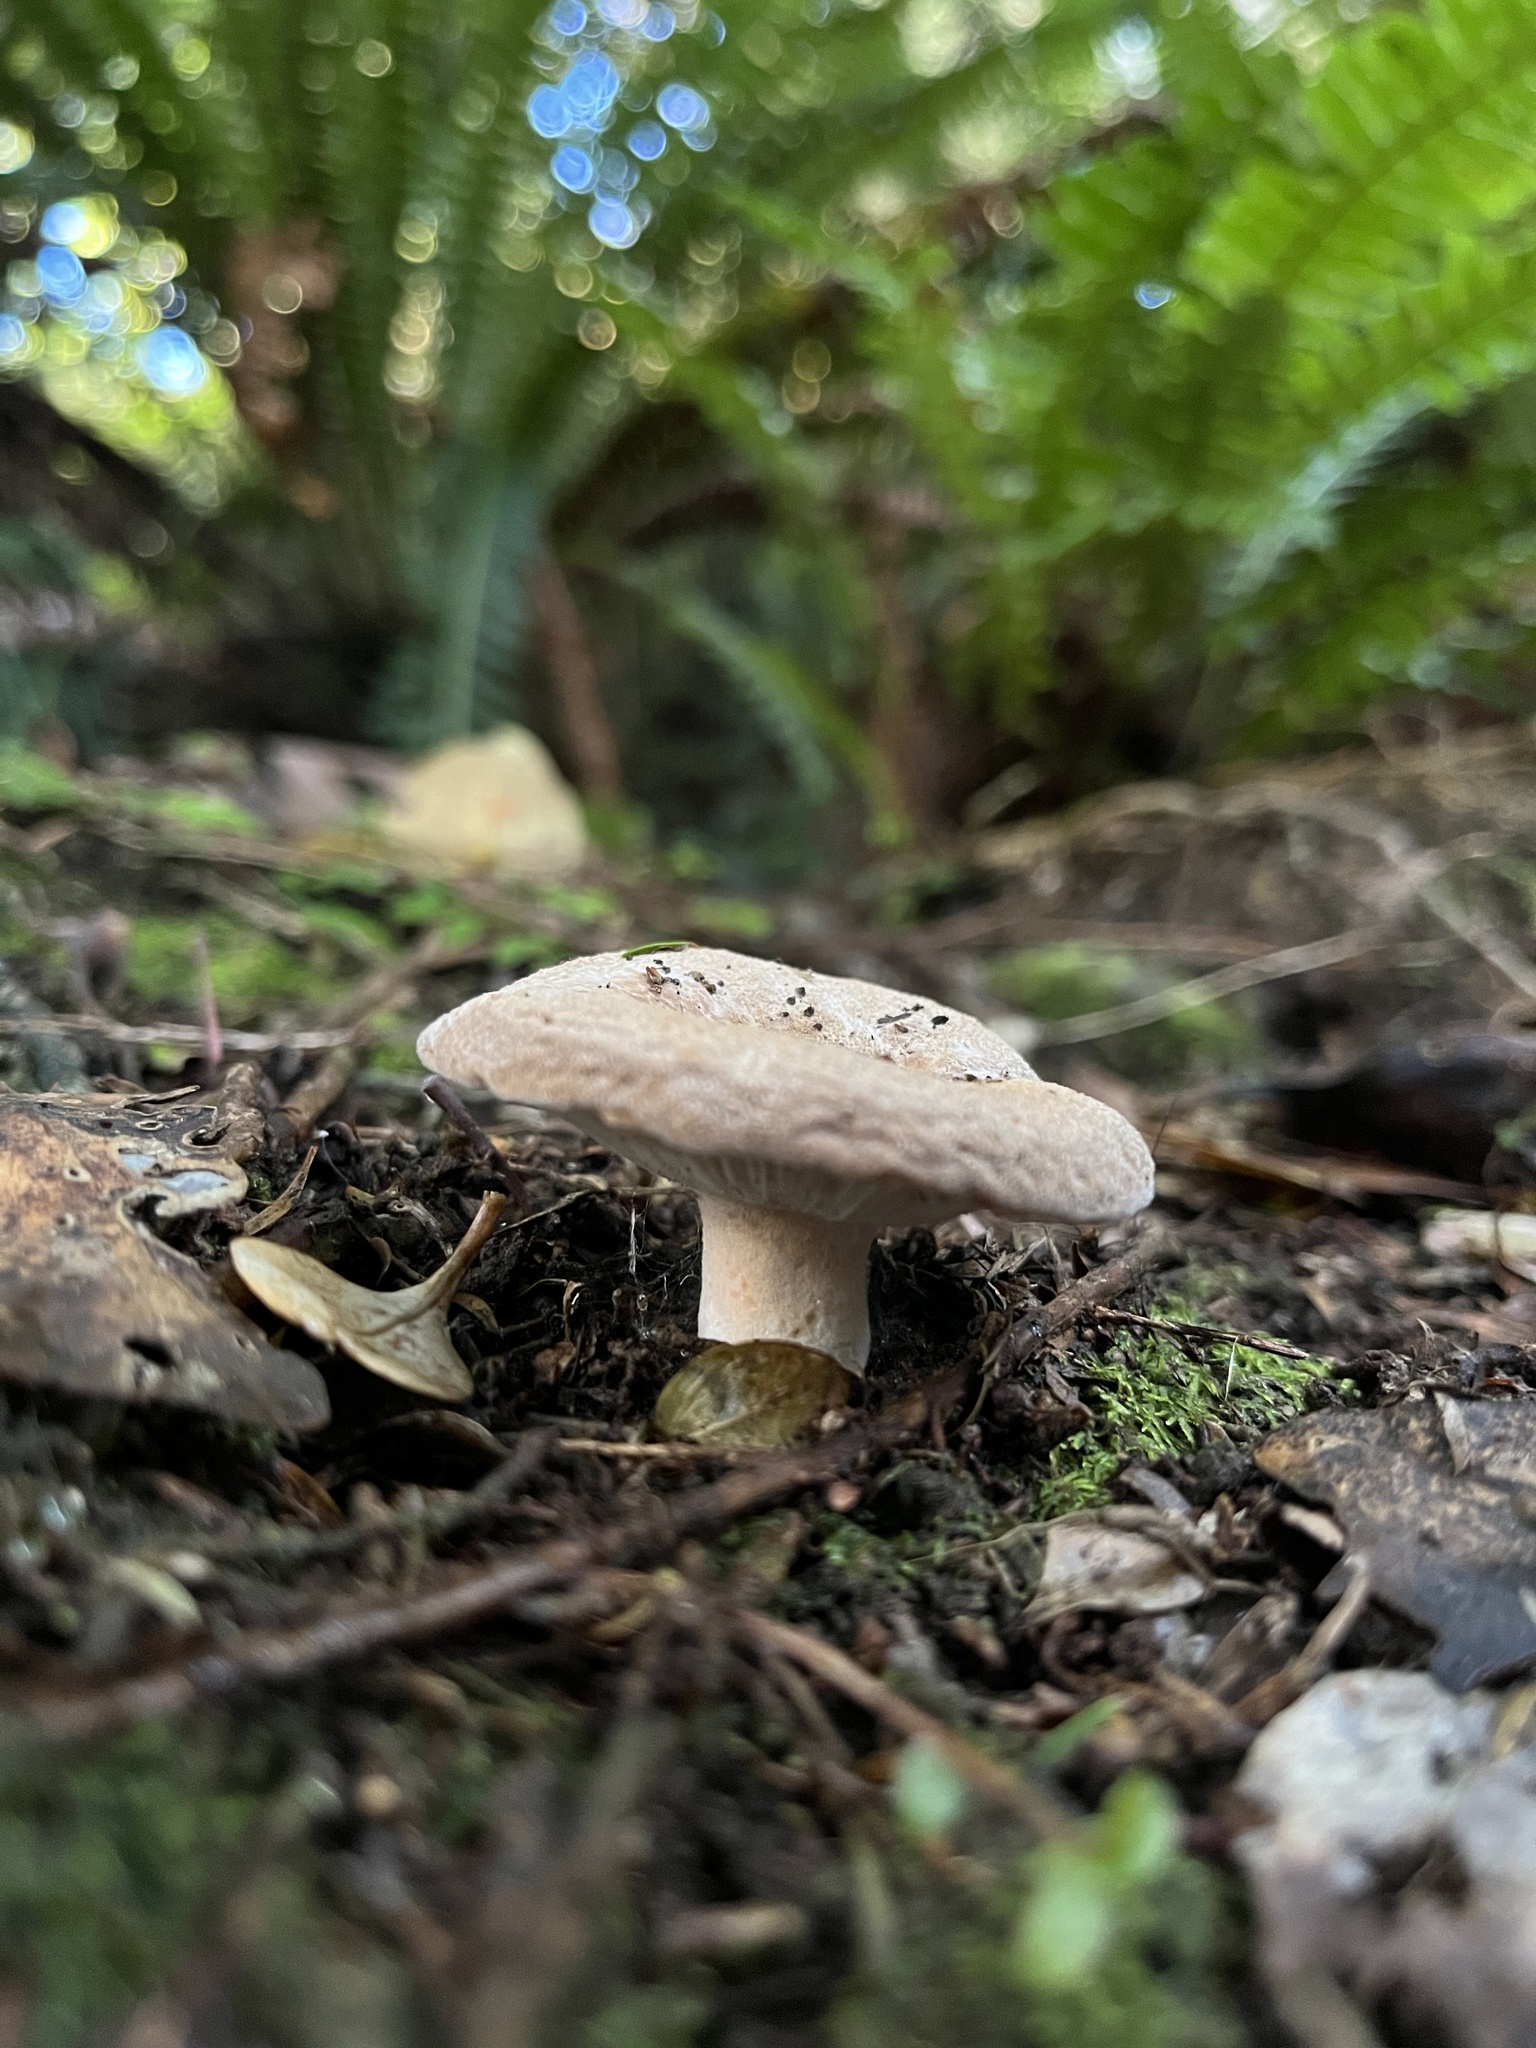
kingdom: Fungi
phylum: Basidiomycota
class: Agaricomycetes
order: Russulales
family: Russulaceae
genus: Lactifluus
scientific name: Lactifluus clarkeae
